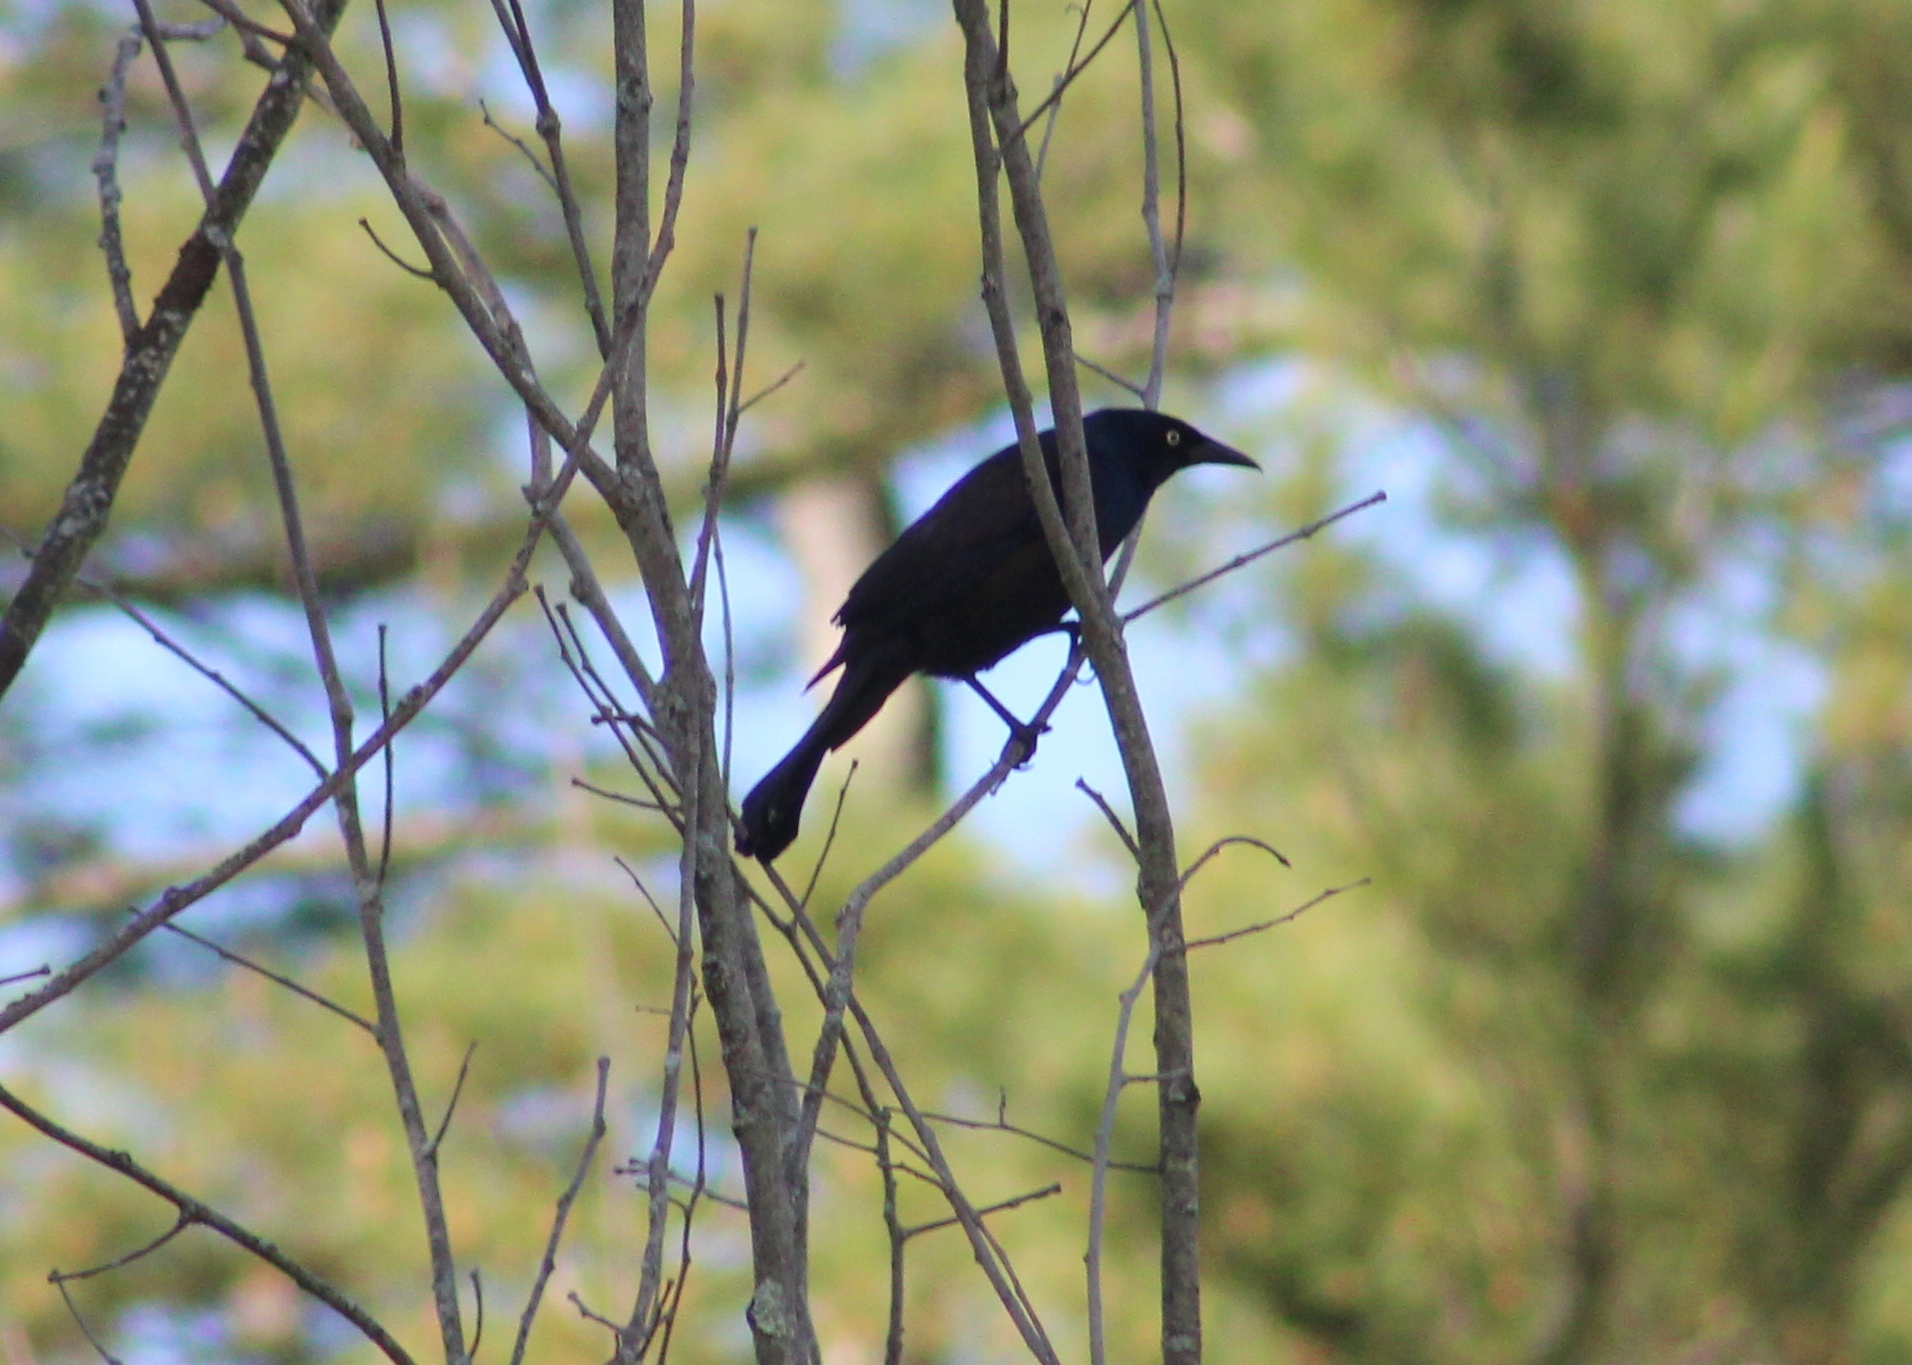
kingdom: Animalia
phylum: Chordata
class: Aves
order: Passeriformes
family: Icteridae
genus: Quiscalus
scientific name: Quiscalus quiscula
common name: Common grackle
